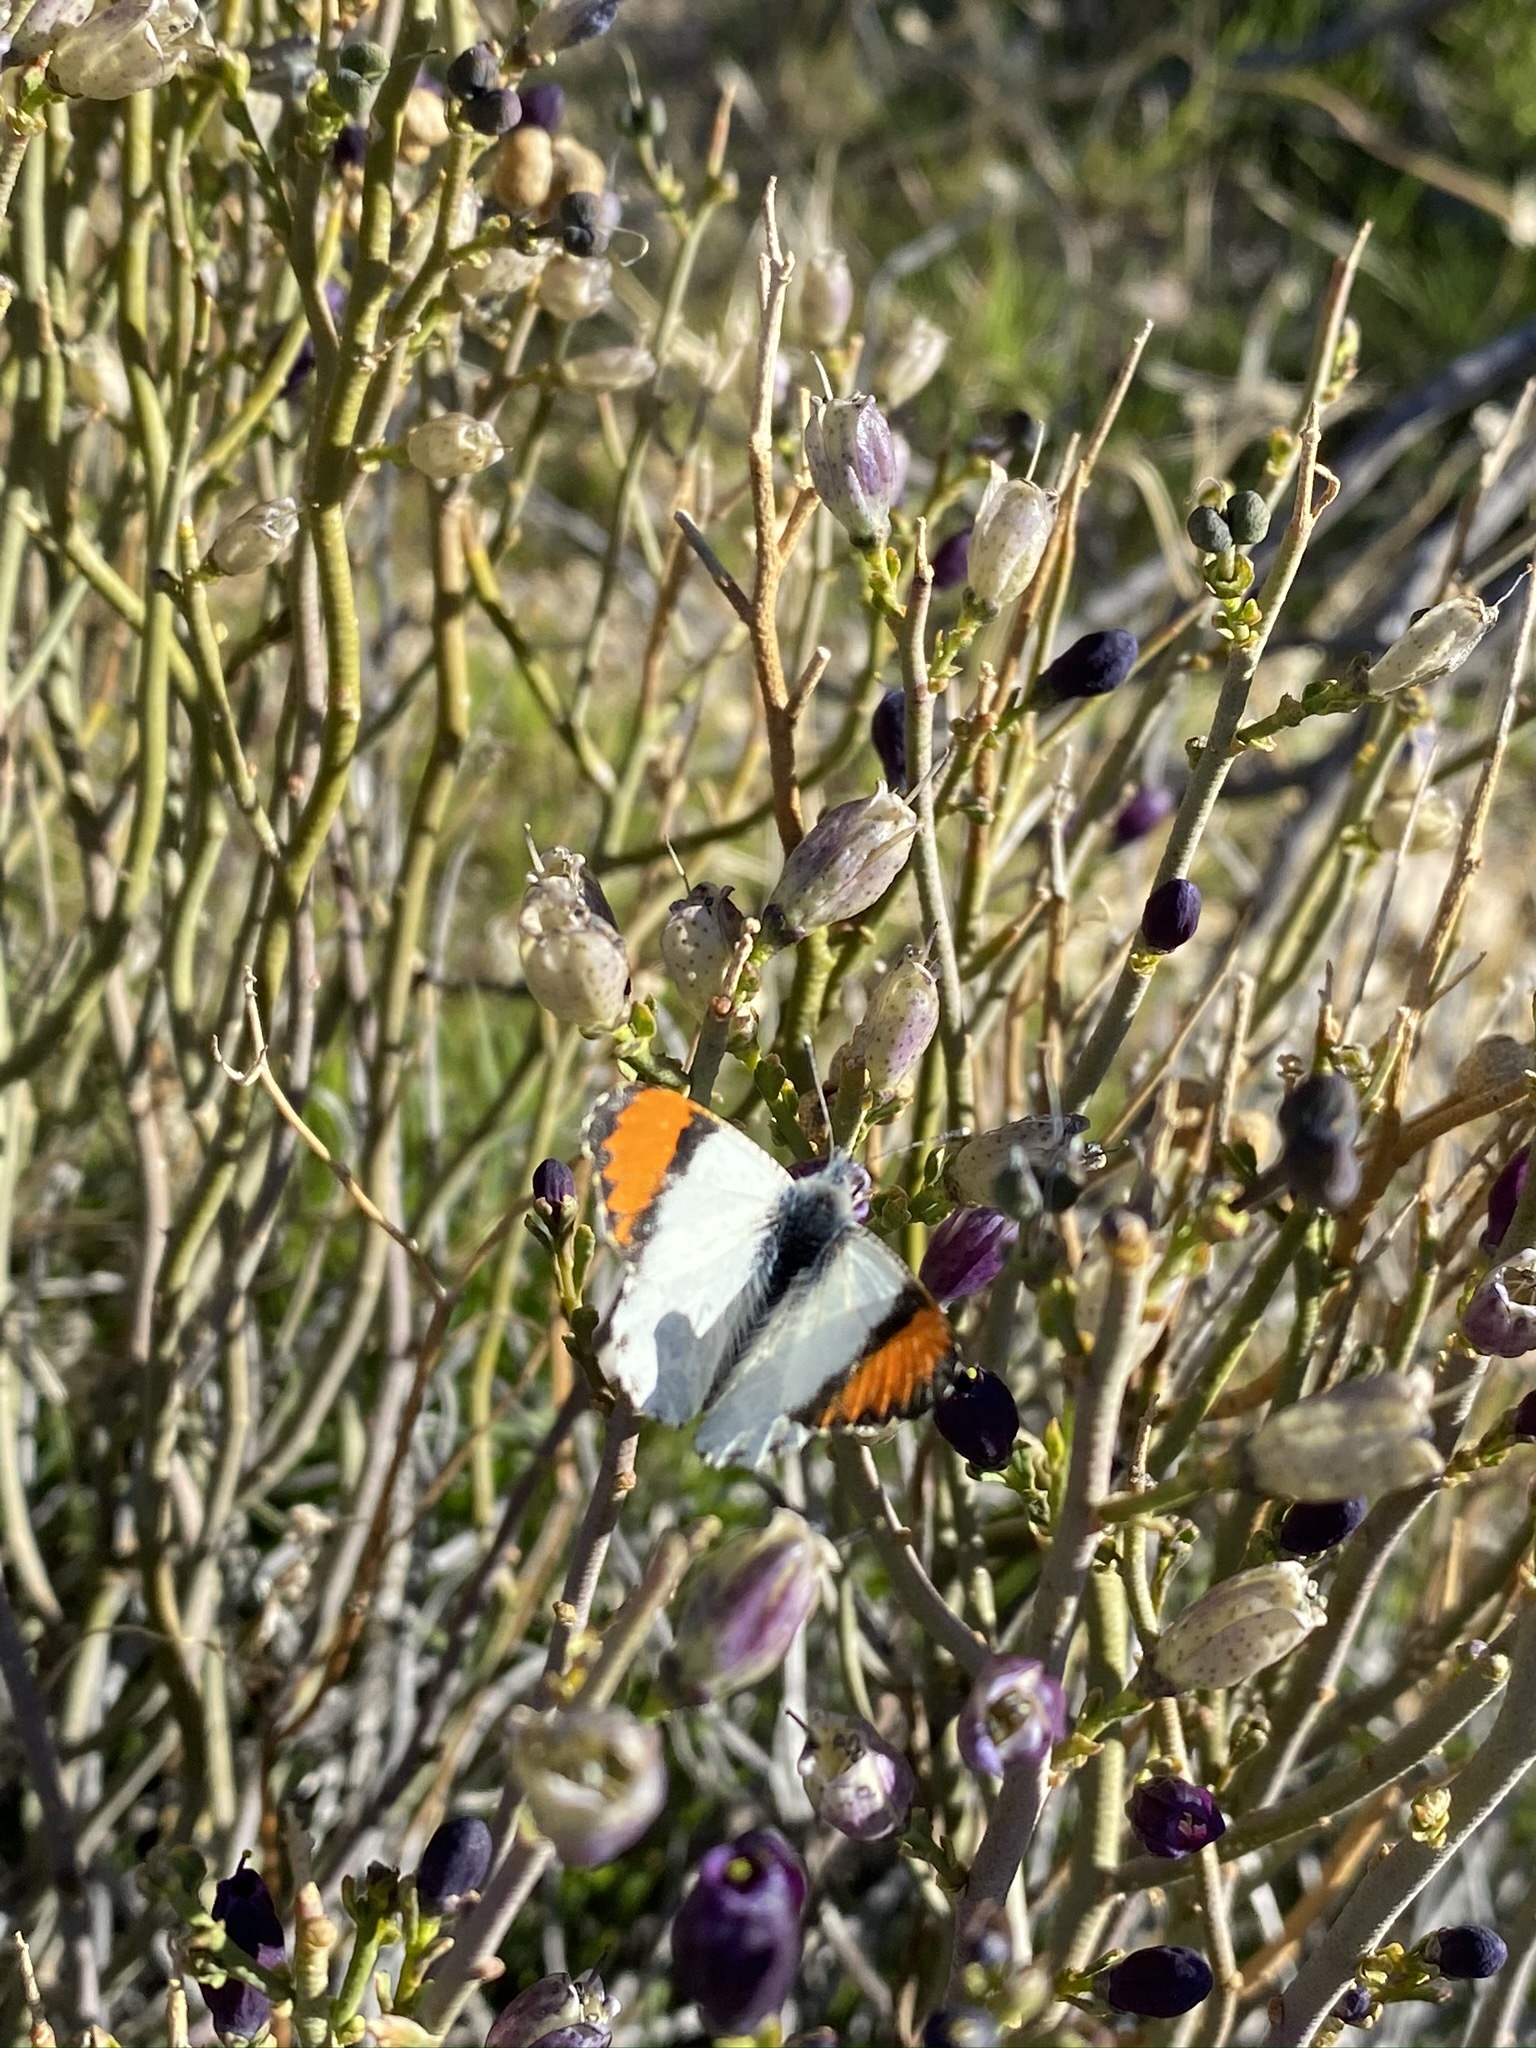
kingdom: Animalia
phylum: Arthropoda
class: Insecta
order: Lepidoptera
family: Pieridae
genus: Anthocharis
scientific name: Anthocharis sara
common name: Sara's orangetip
